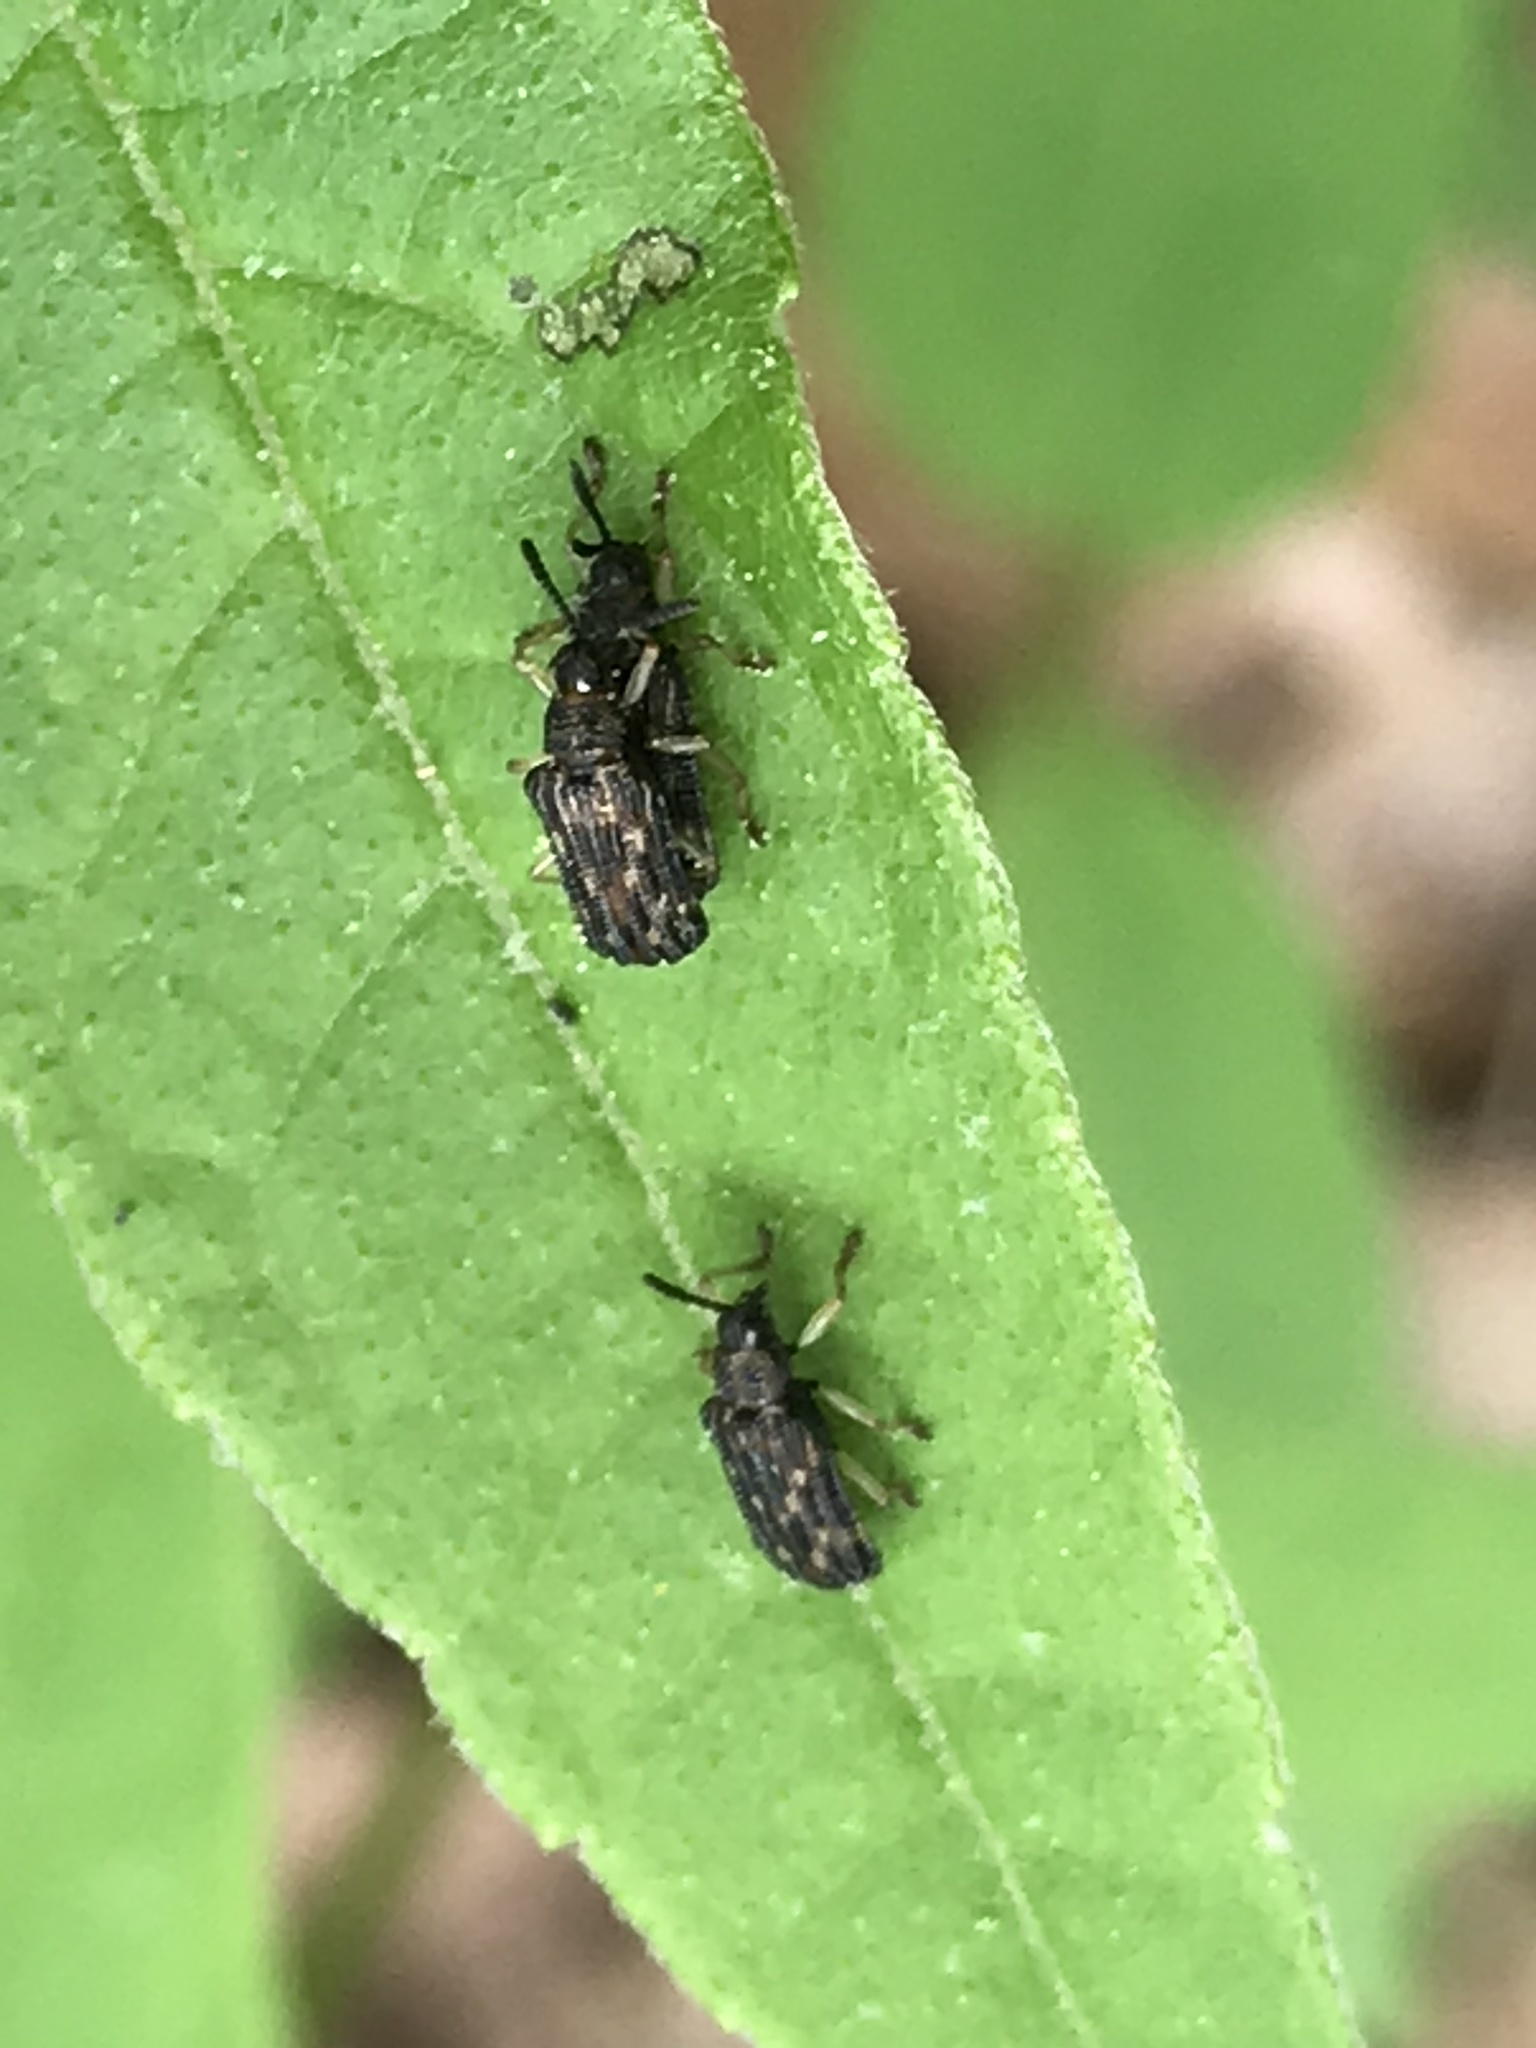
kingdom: Animalia
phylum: Arthropoda
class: Insecta
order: Coleoptera
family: Chrysomelidae
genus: Sumitrosis
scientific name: Sumitrosis inaequalis
